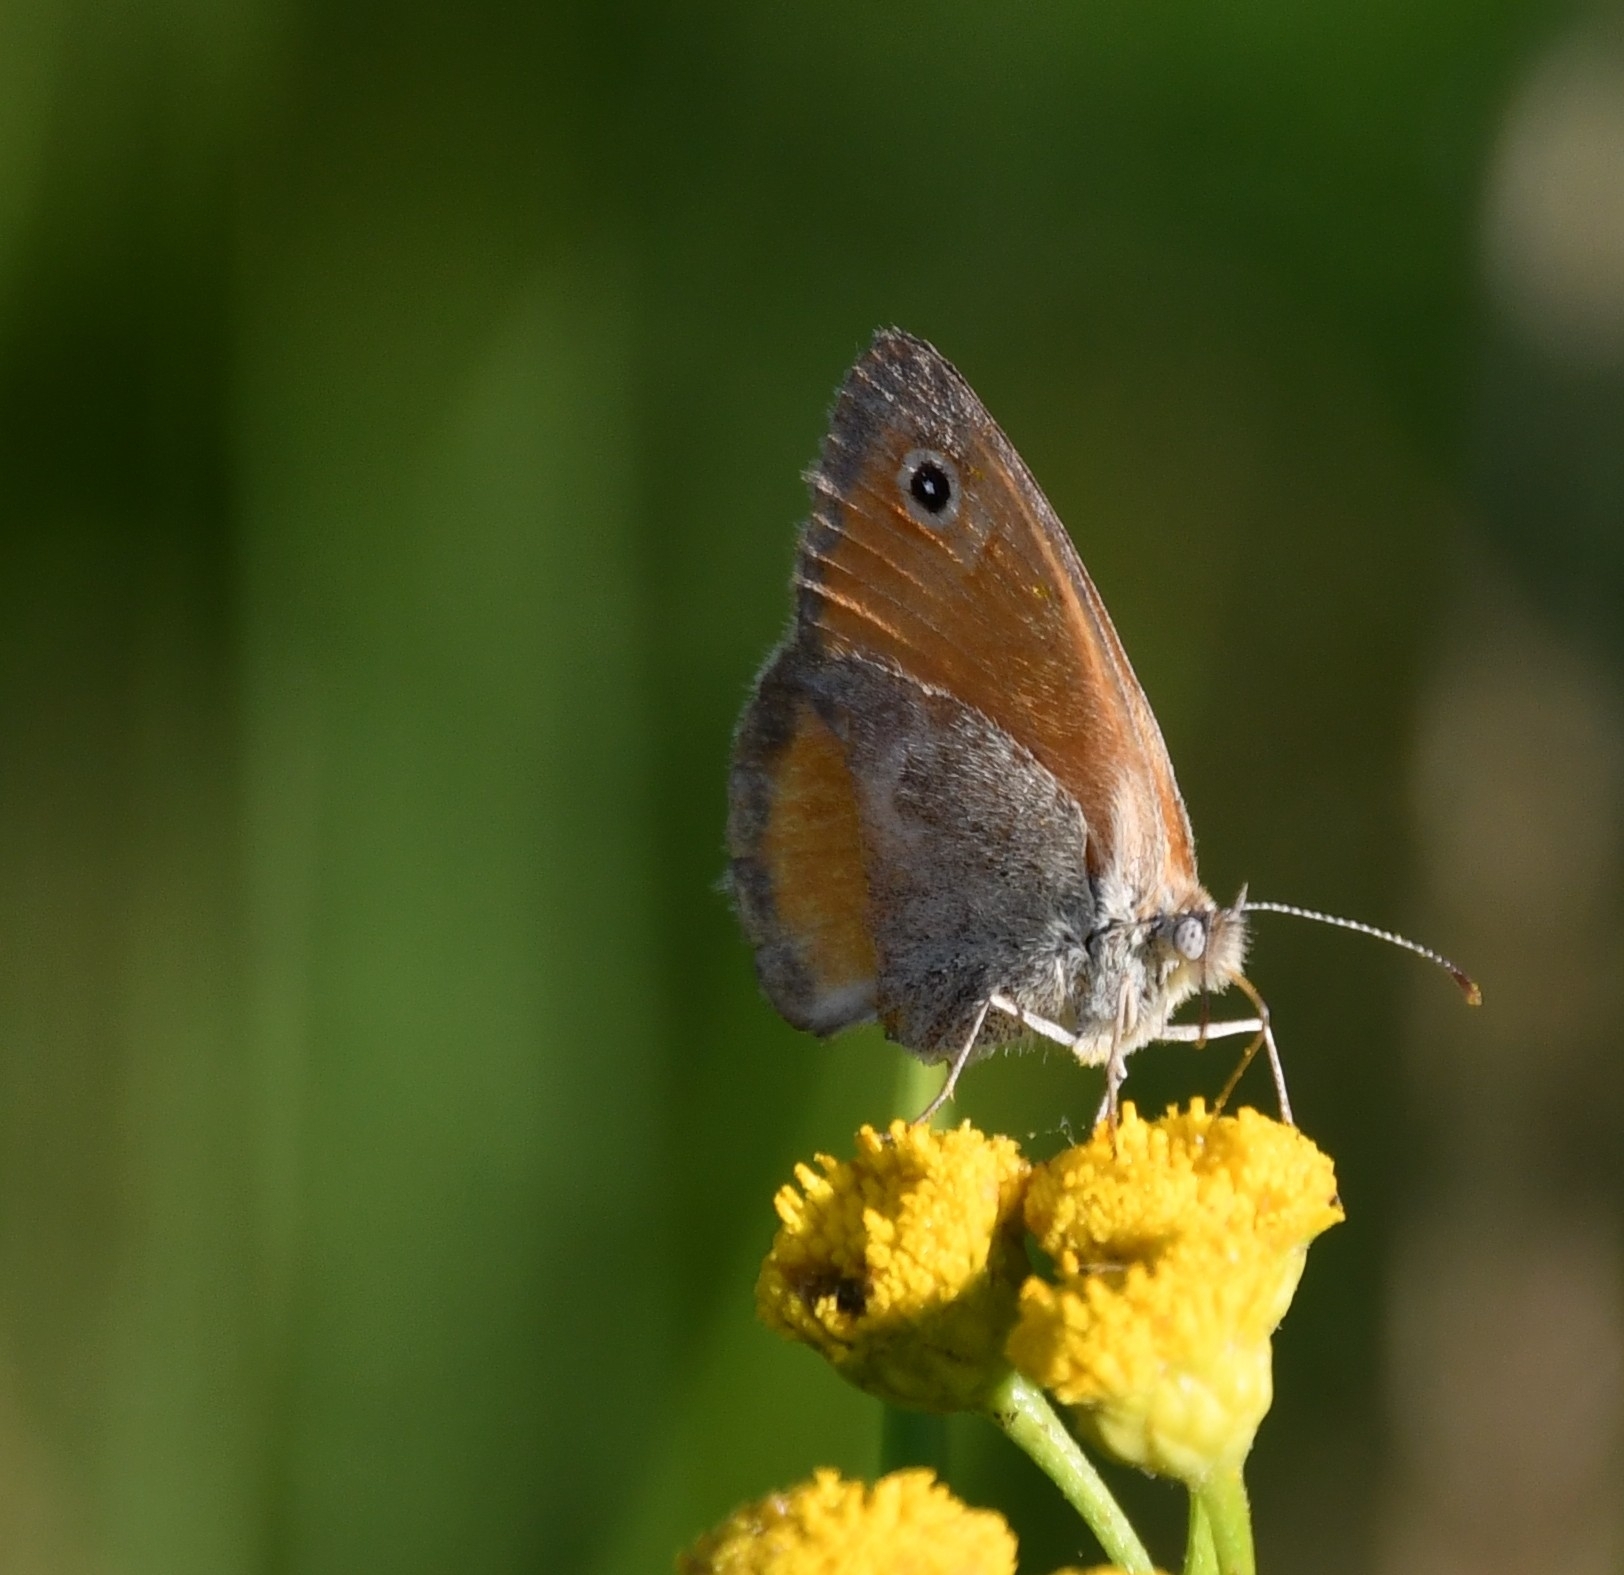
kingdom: Animalia
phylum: Arthropoda
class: Insecta
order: Lepidoptera
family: Nymphalidae
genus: Coenonympha
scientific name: Coenonympha pamphilus
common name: Small heath
